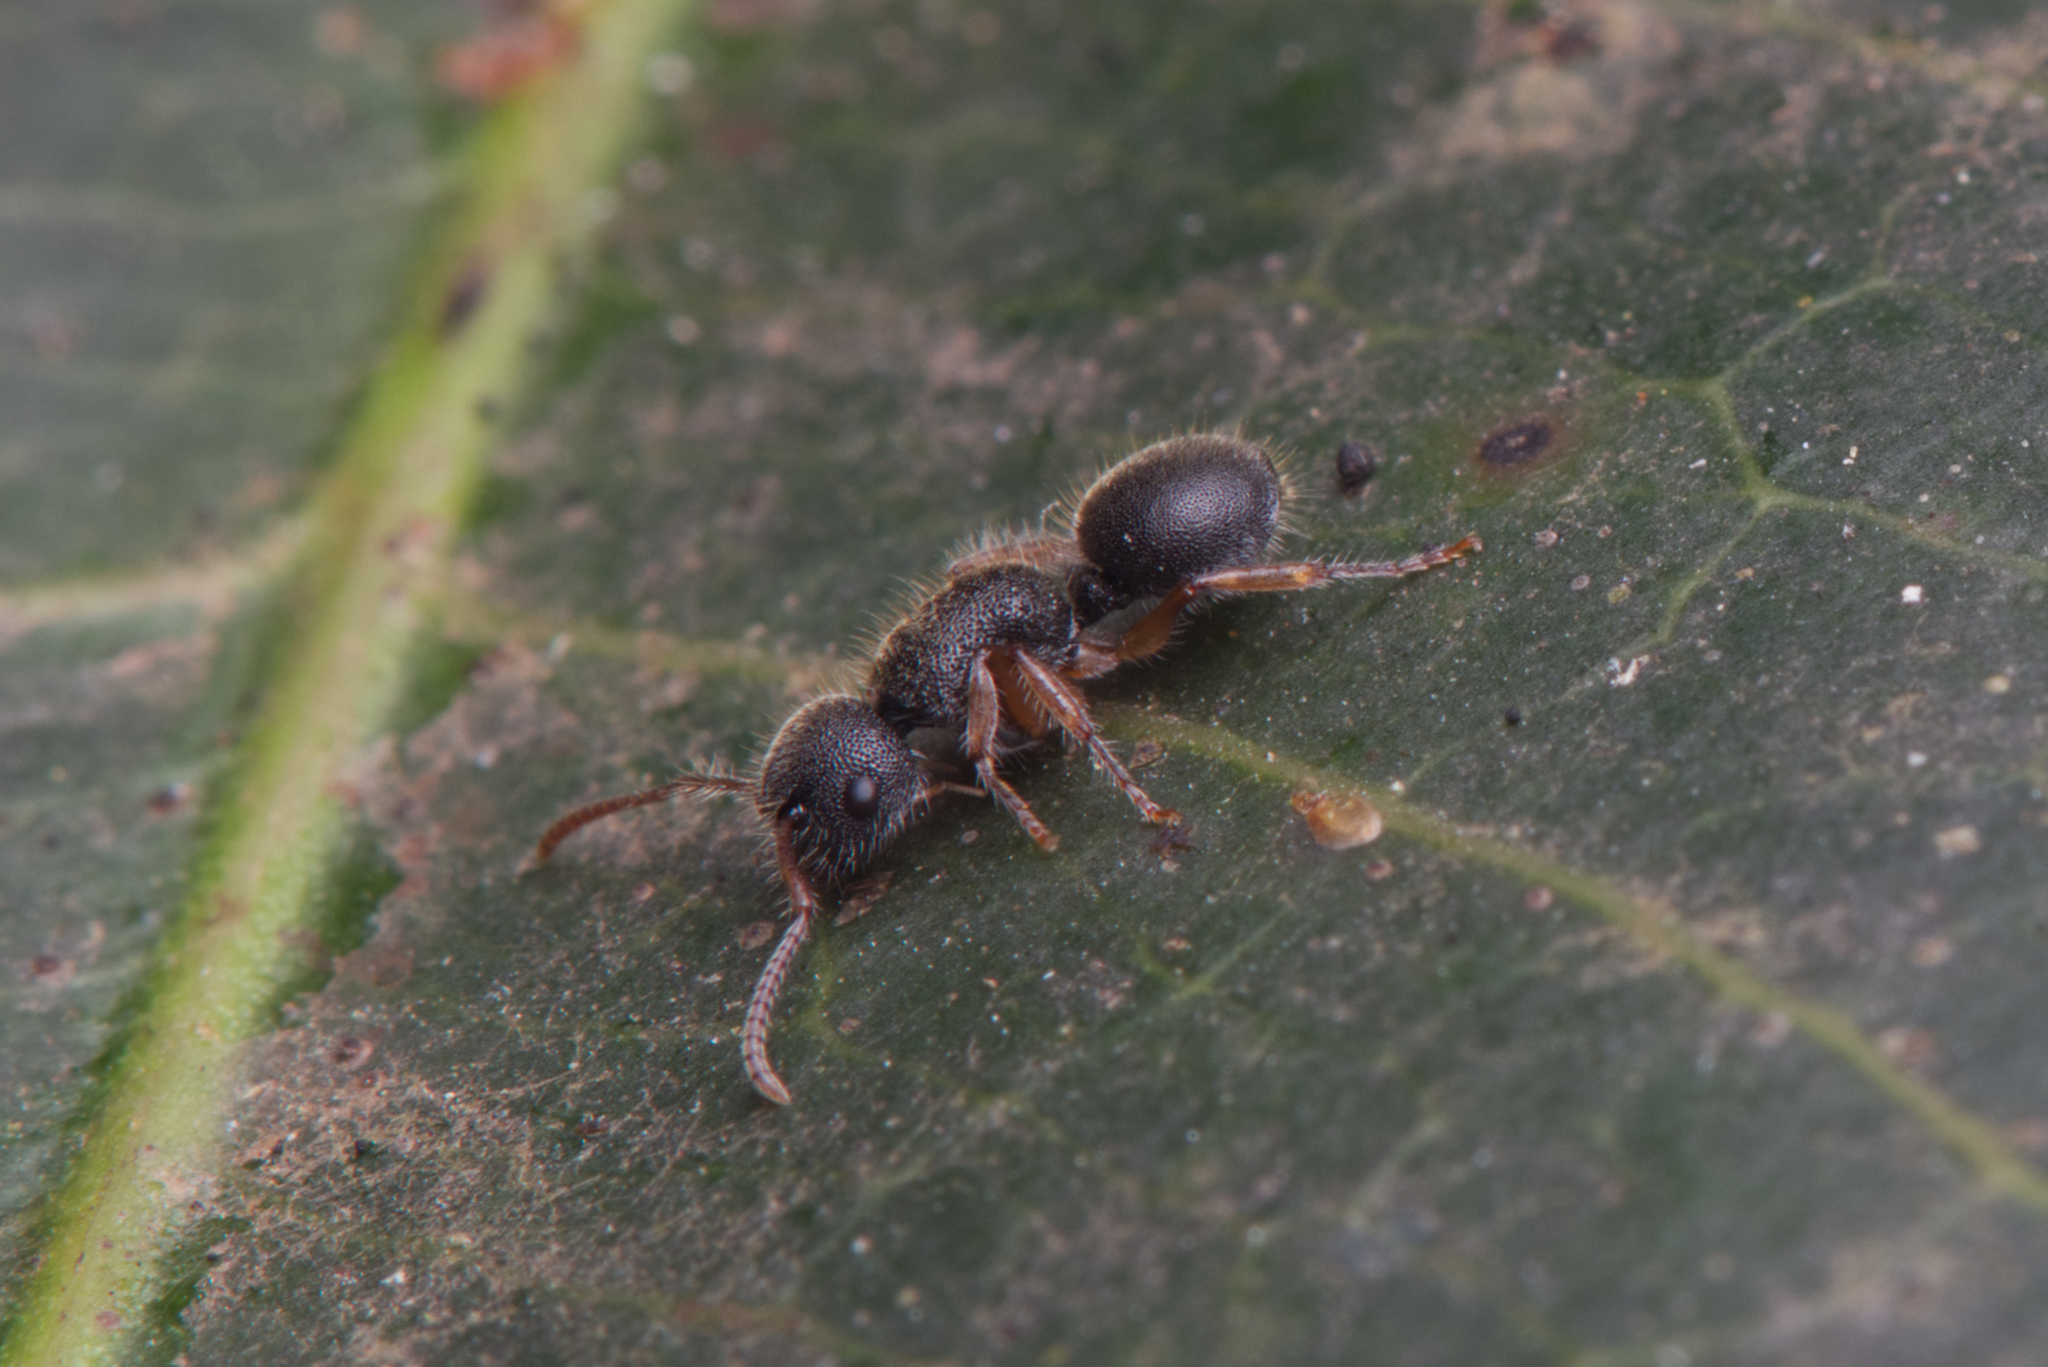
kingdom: Animalia
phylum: Arthropoda
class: Insecta
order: Hymenoptera
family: Formicidae
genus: Echinopla
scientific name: Echinopla turneri
